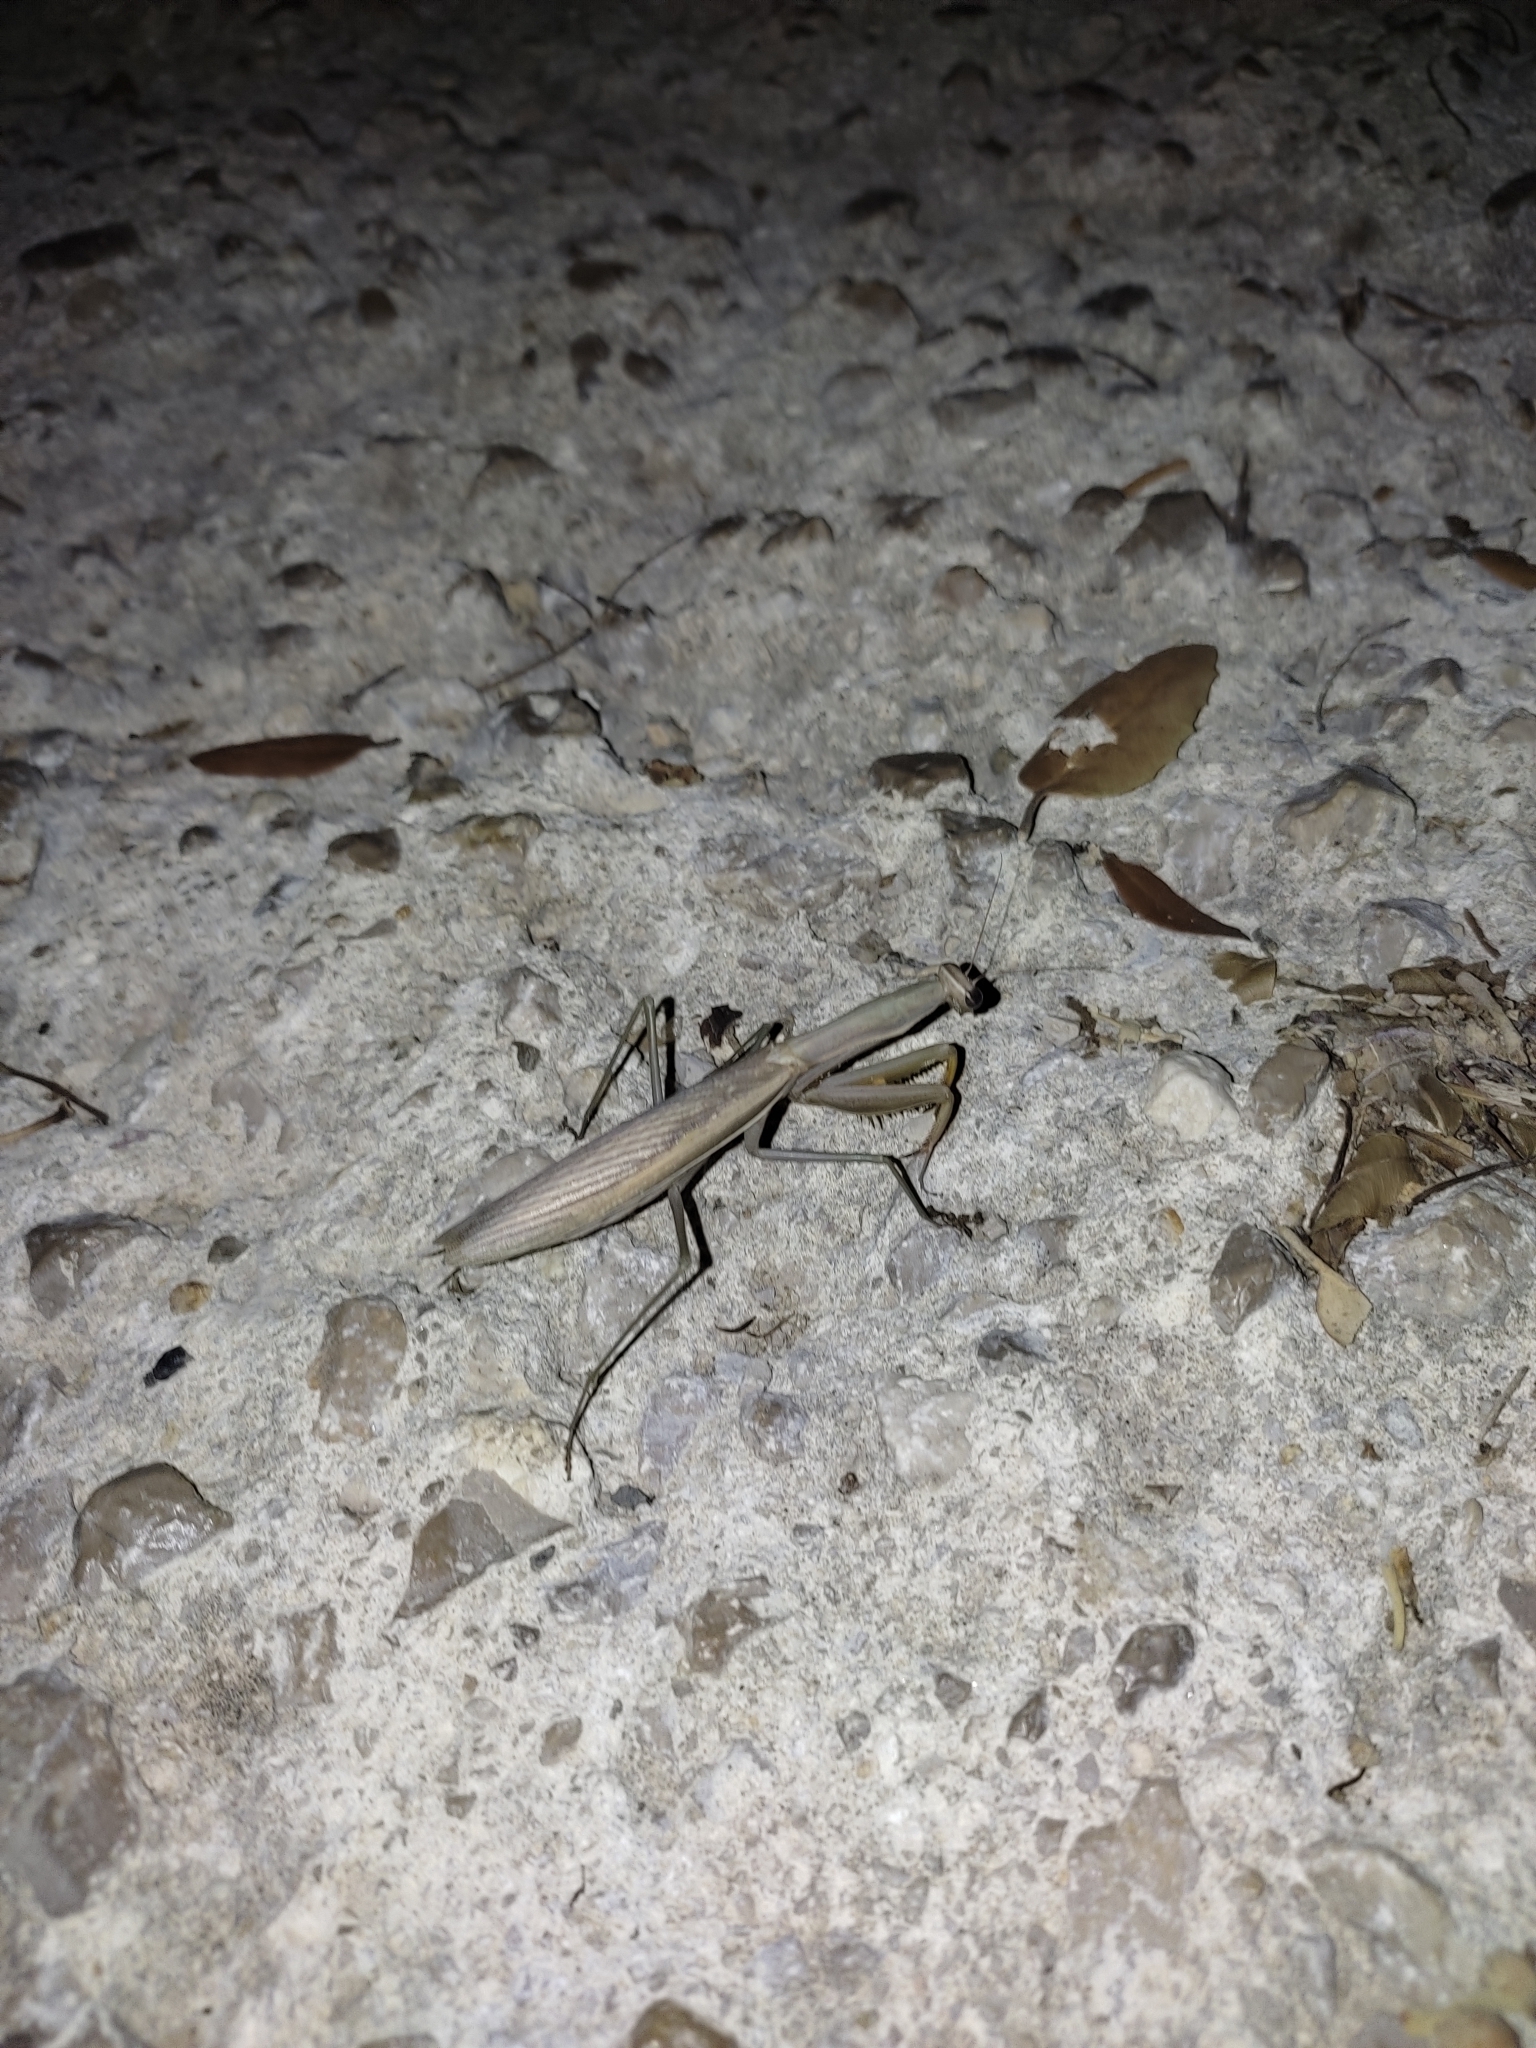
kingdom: Animalia
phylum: Arthropoda
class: Insecta
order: Mantodea
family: Mantidae
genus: Mantis
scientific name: Mantis religiosa
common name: Praying mantis
